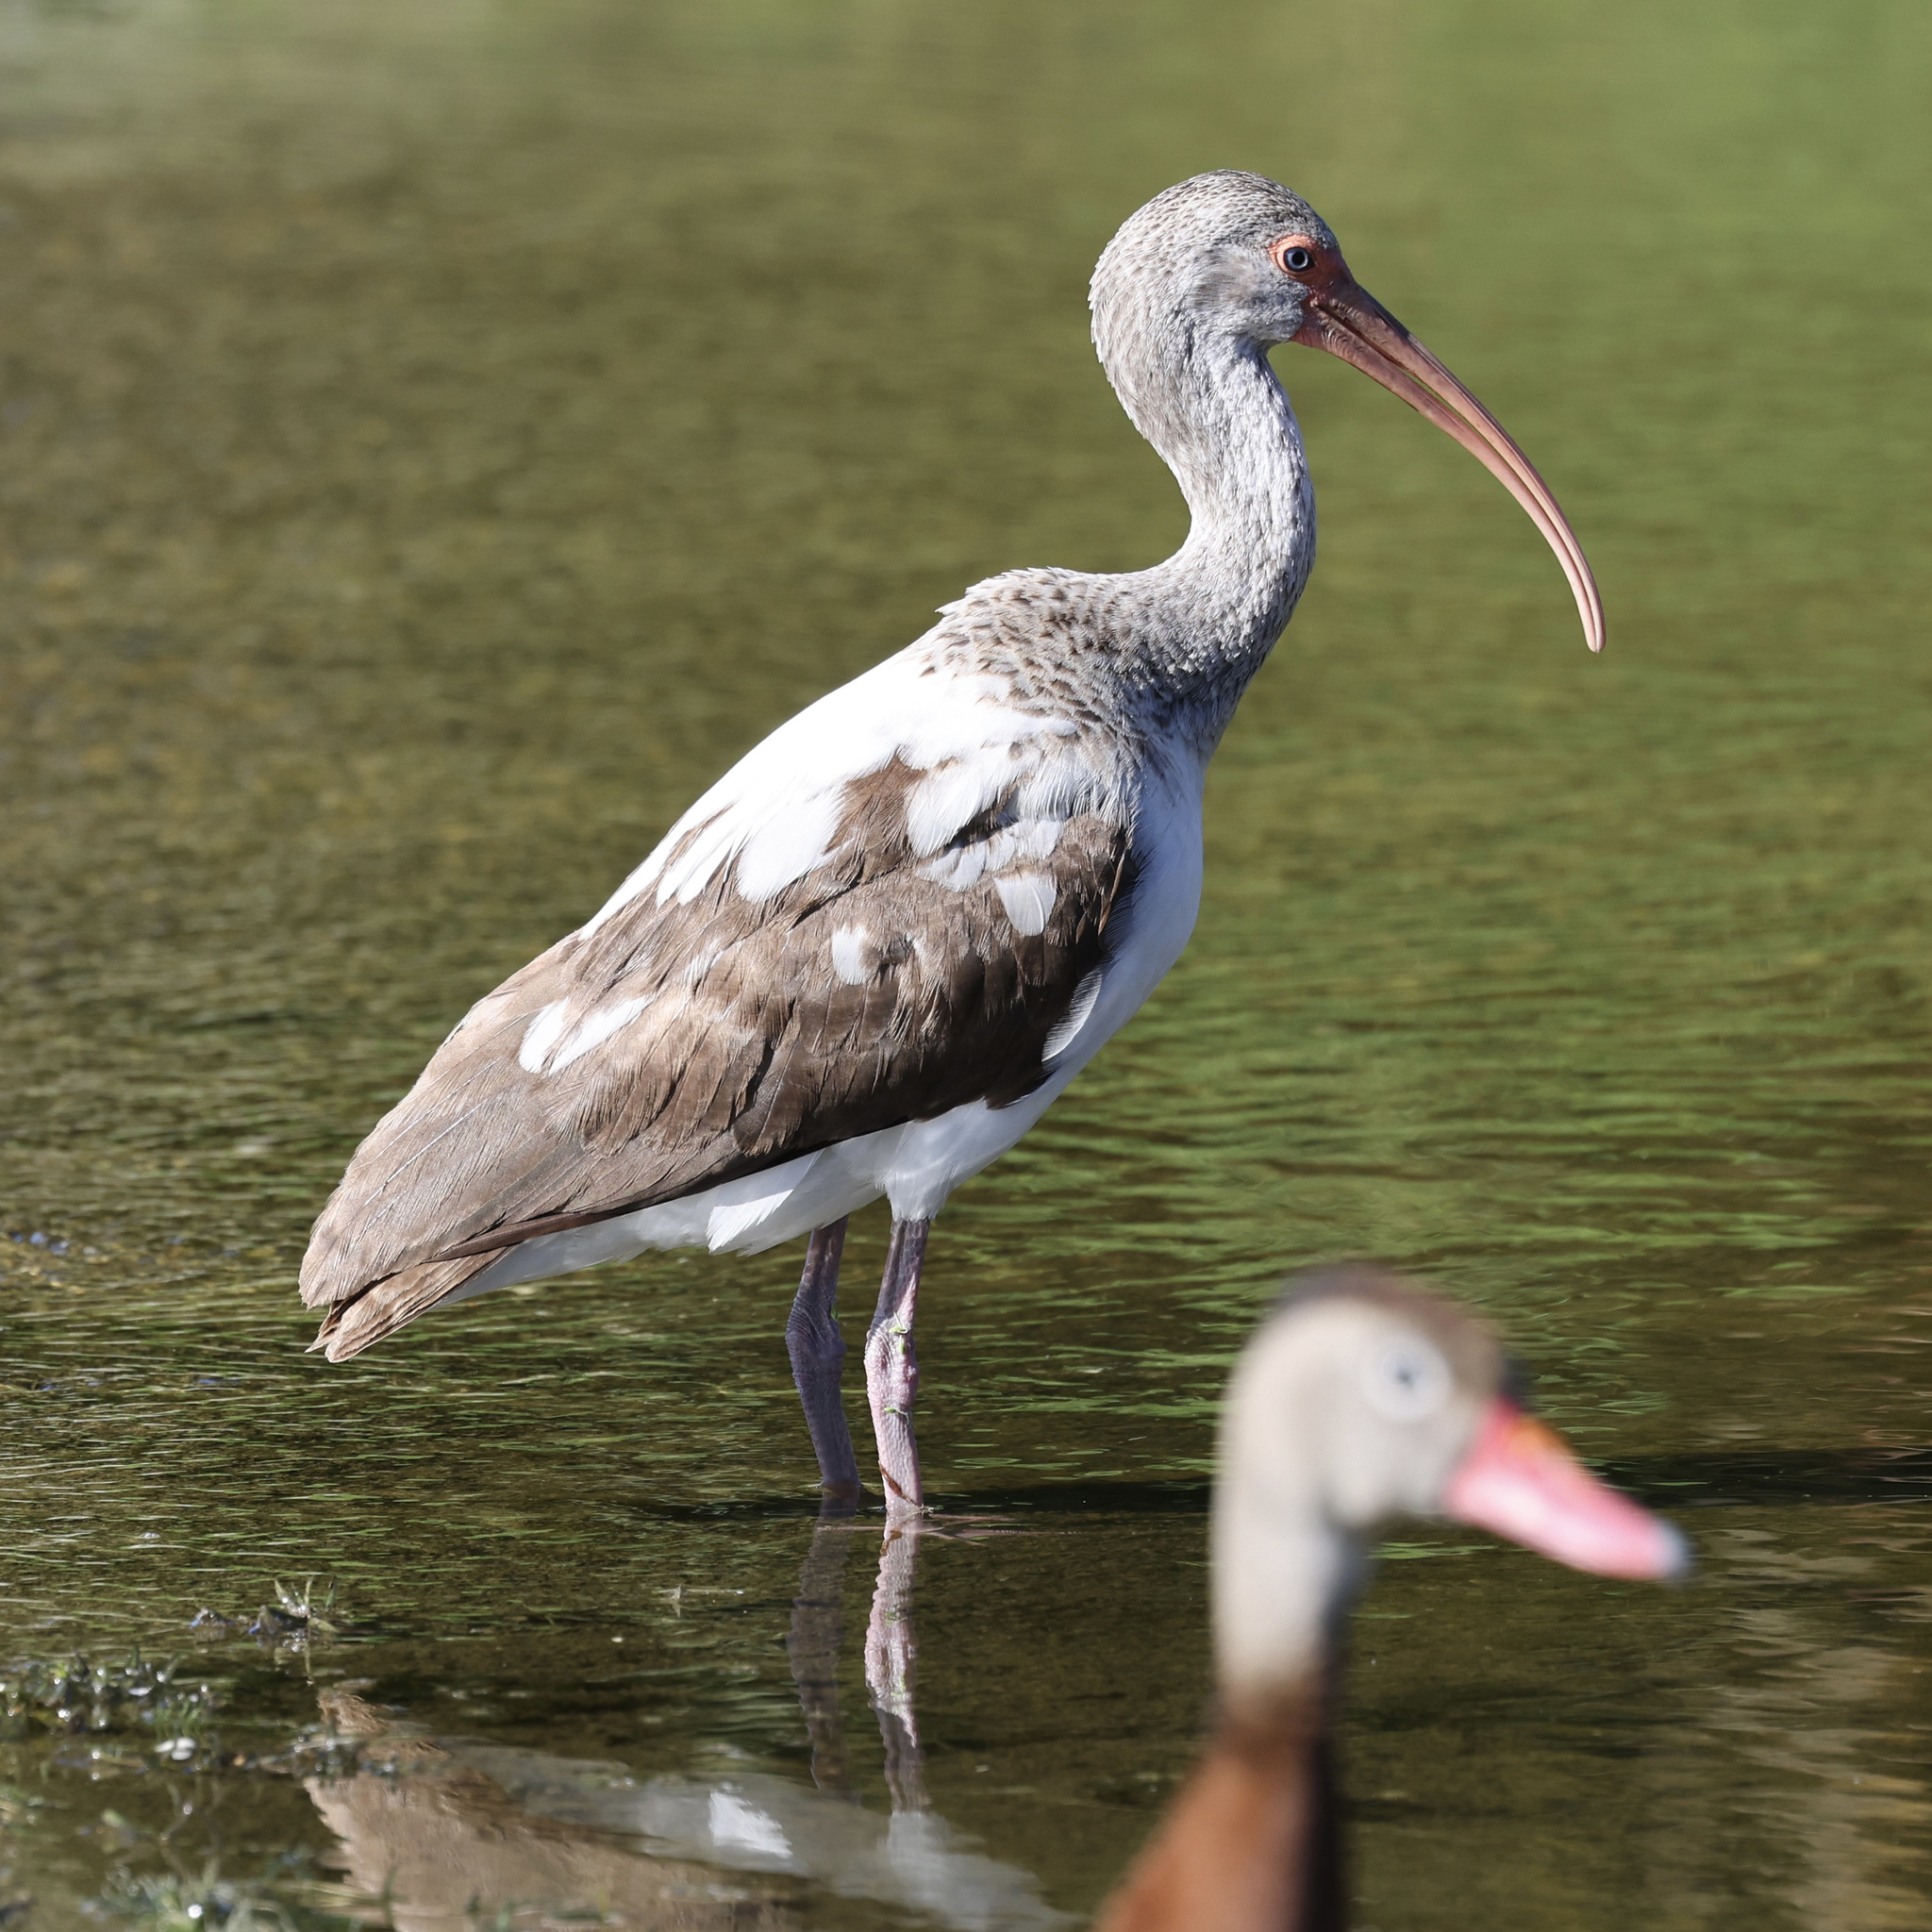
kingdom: Animalia
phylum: Chordata
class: Aves
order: Pelecaniformes
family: Threskiornithidae
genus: Eudocimus
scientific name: Eudocimus albus
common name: White ibis
